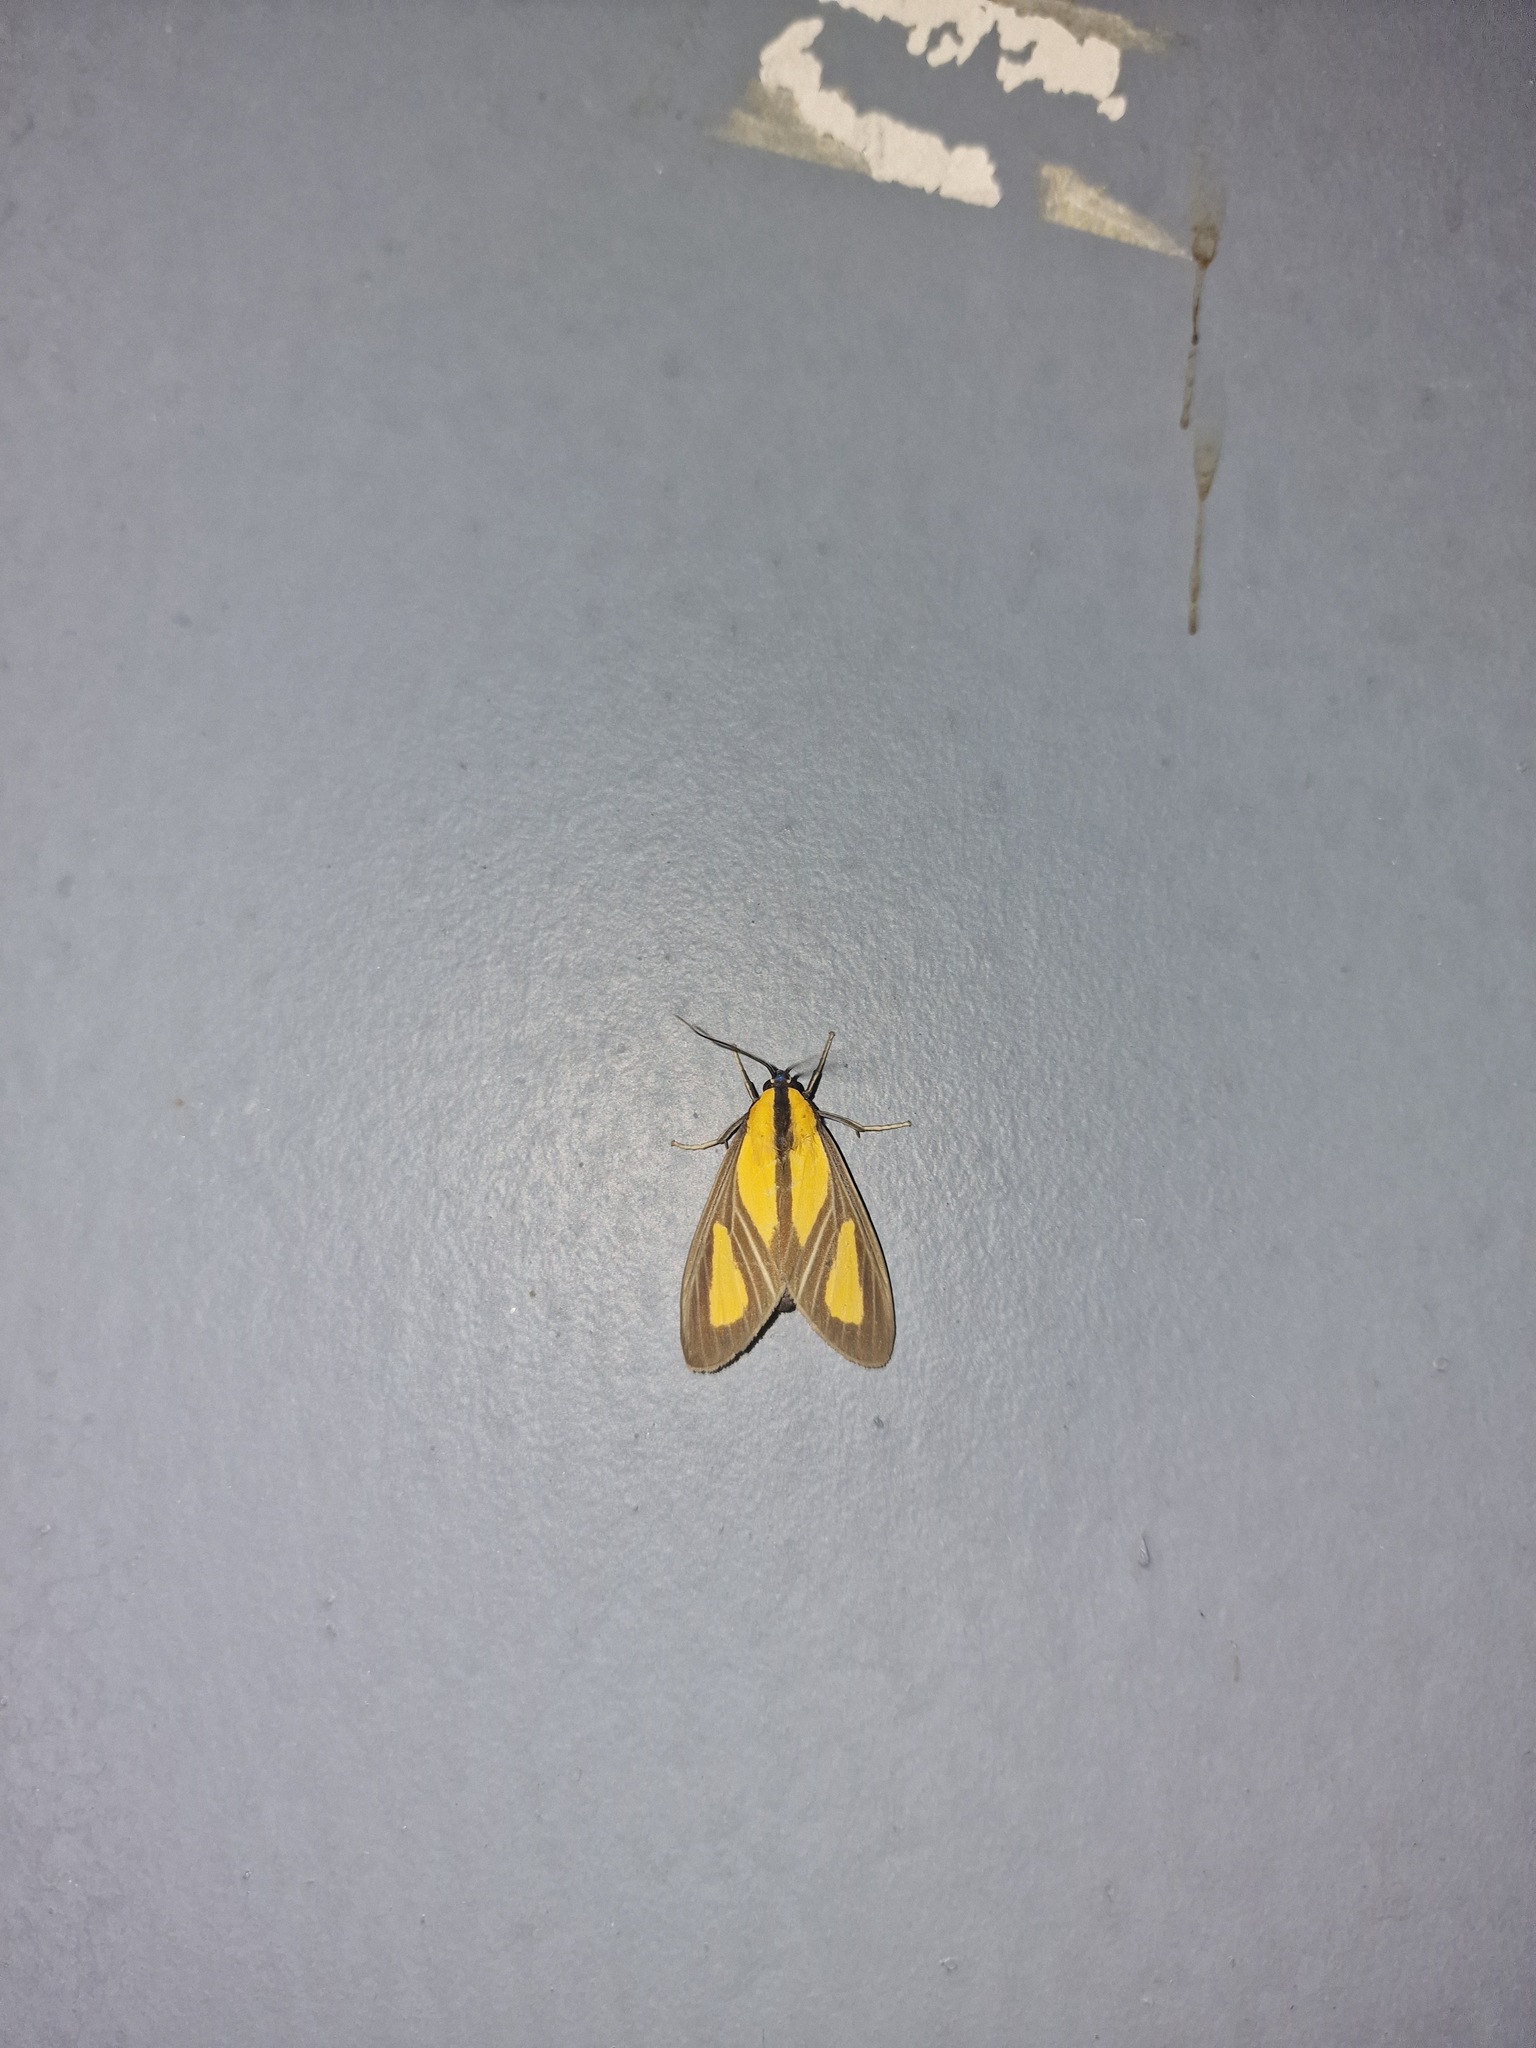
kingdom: Animalia
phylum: Arthropoda
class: Insecta
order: Lepidoptera
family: Erebidae
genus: Xanthoarctia
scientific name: Xanthoarctia pseudameoides
